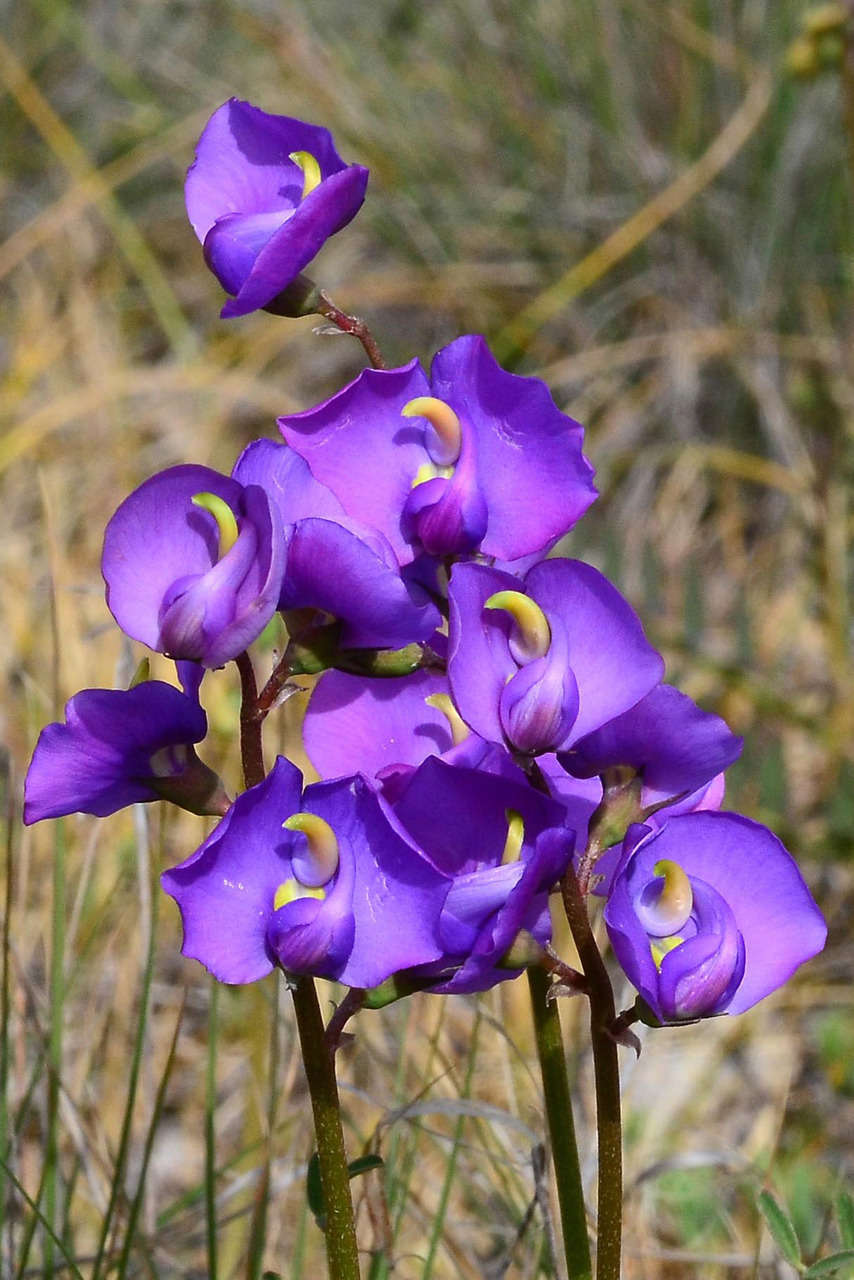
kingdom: Plantae
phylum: Tracheophyta
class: Magnoliopsida
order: Fabales
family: Fabaceae
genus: Swainsona
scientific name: Swainsona procumbens
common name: Broughton-pea
